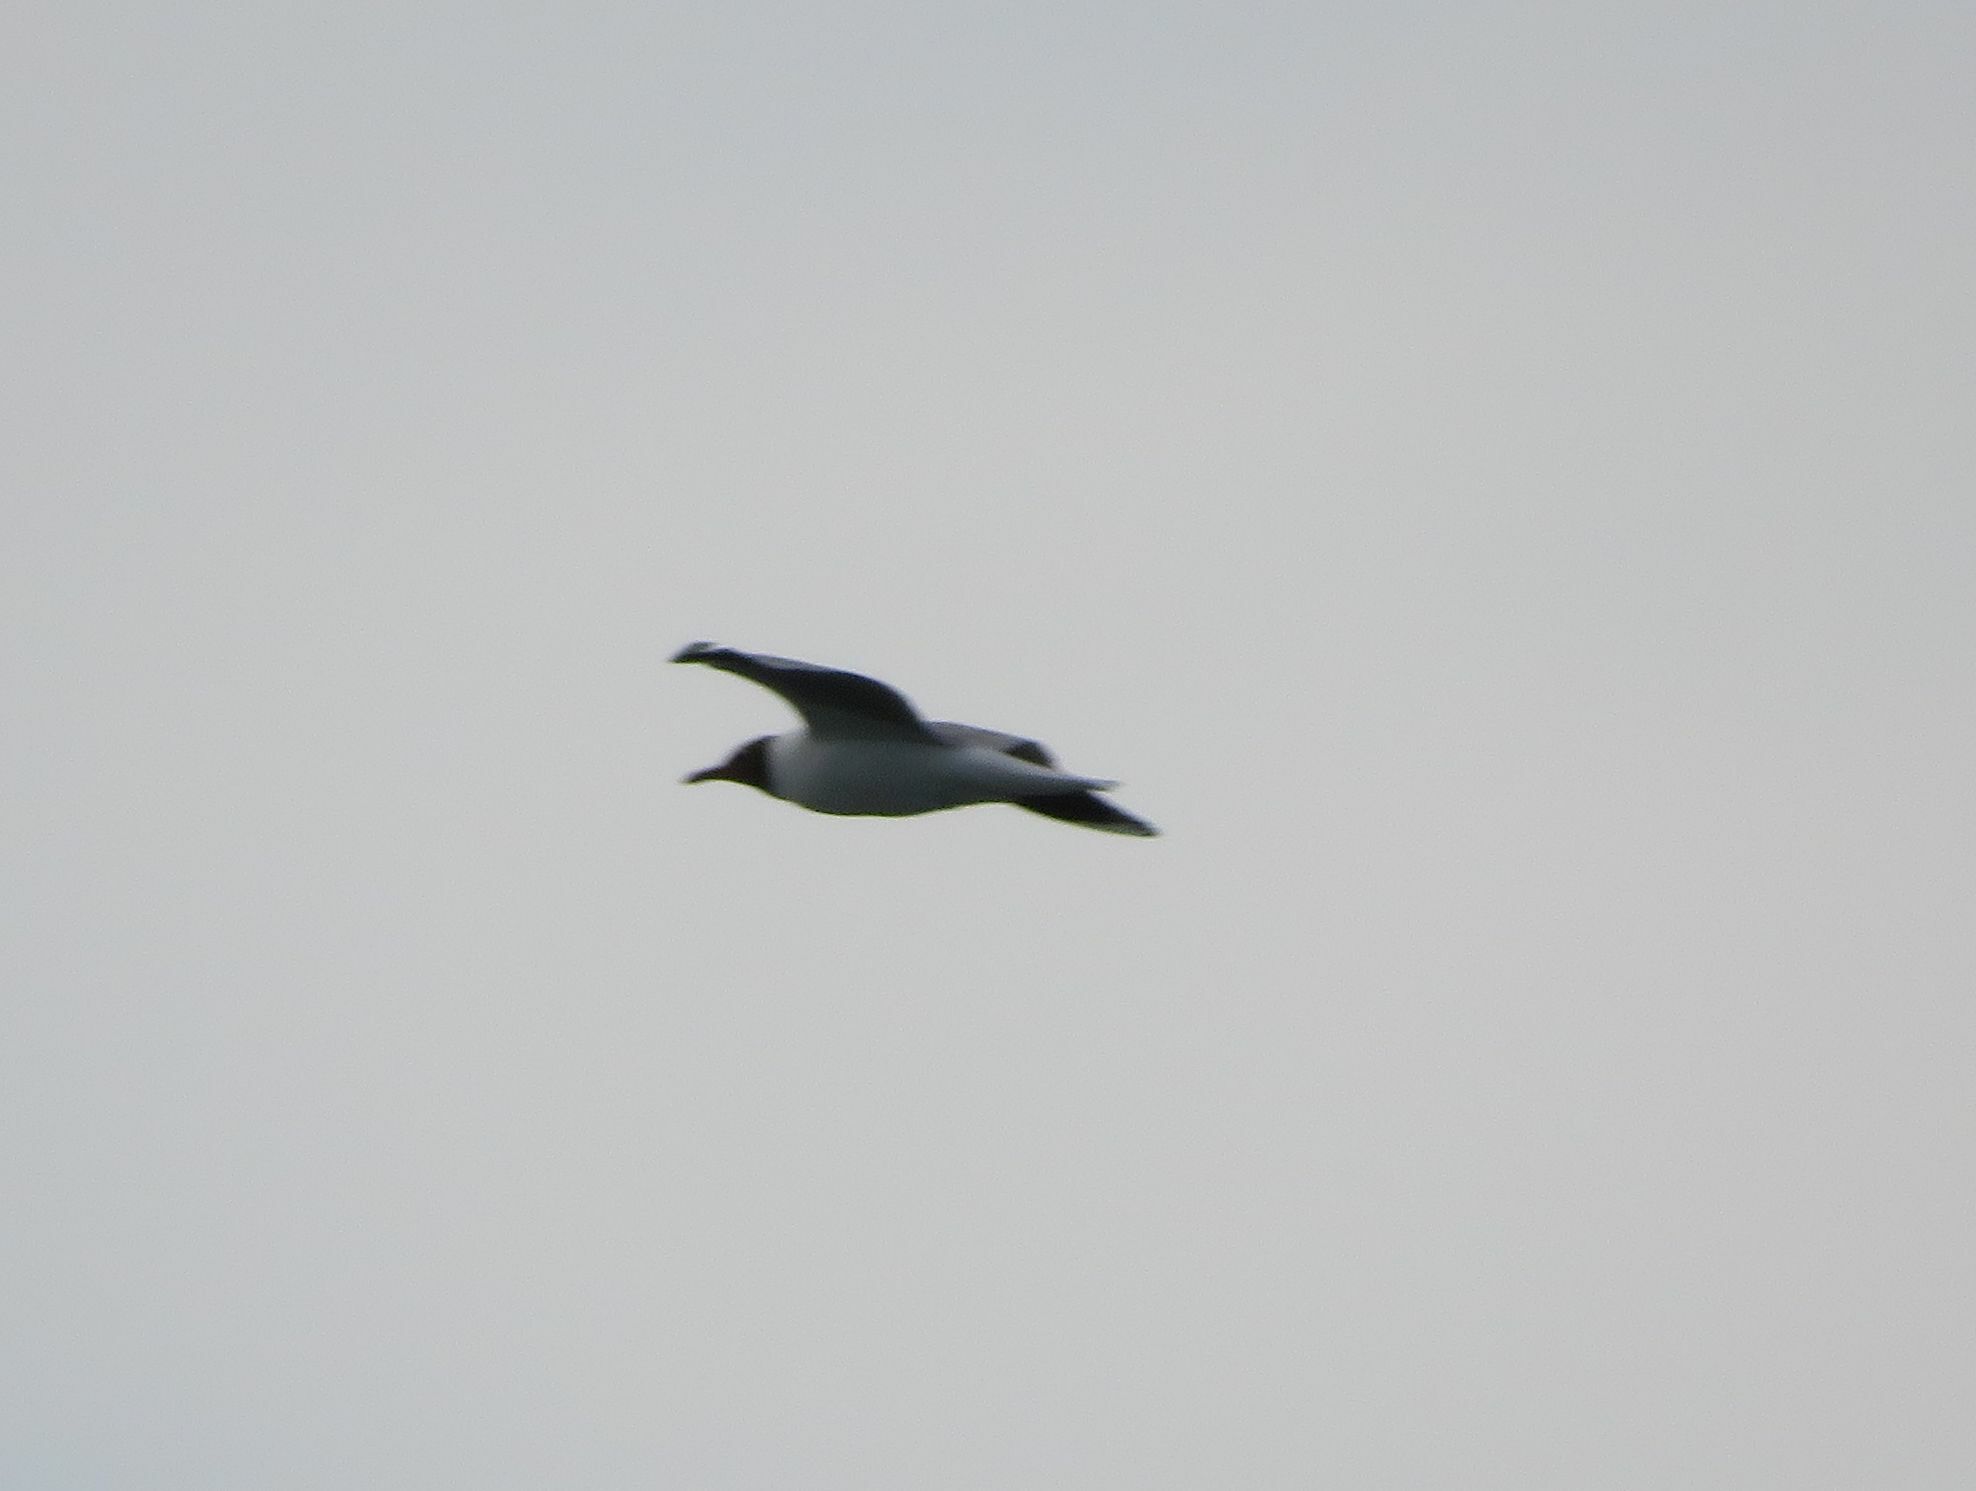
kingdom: Animalia
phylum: Chordata
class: Aves
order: Charadriiformes
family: Laridae
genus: Chroicocephalus
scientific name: Chroicocephalus maculipennis
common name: Brown-hooded gull
